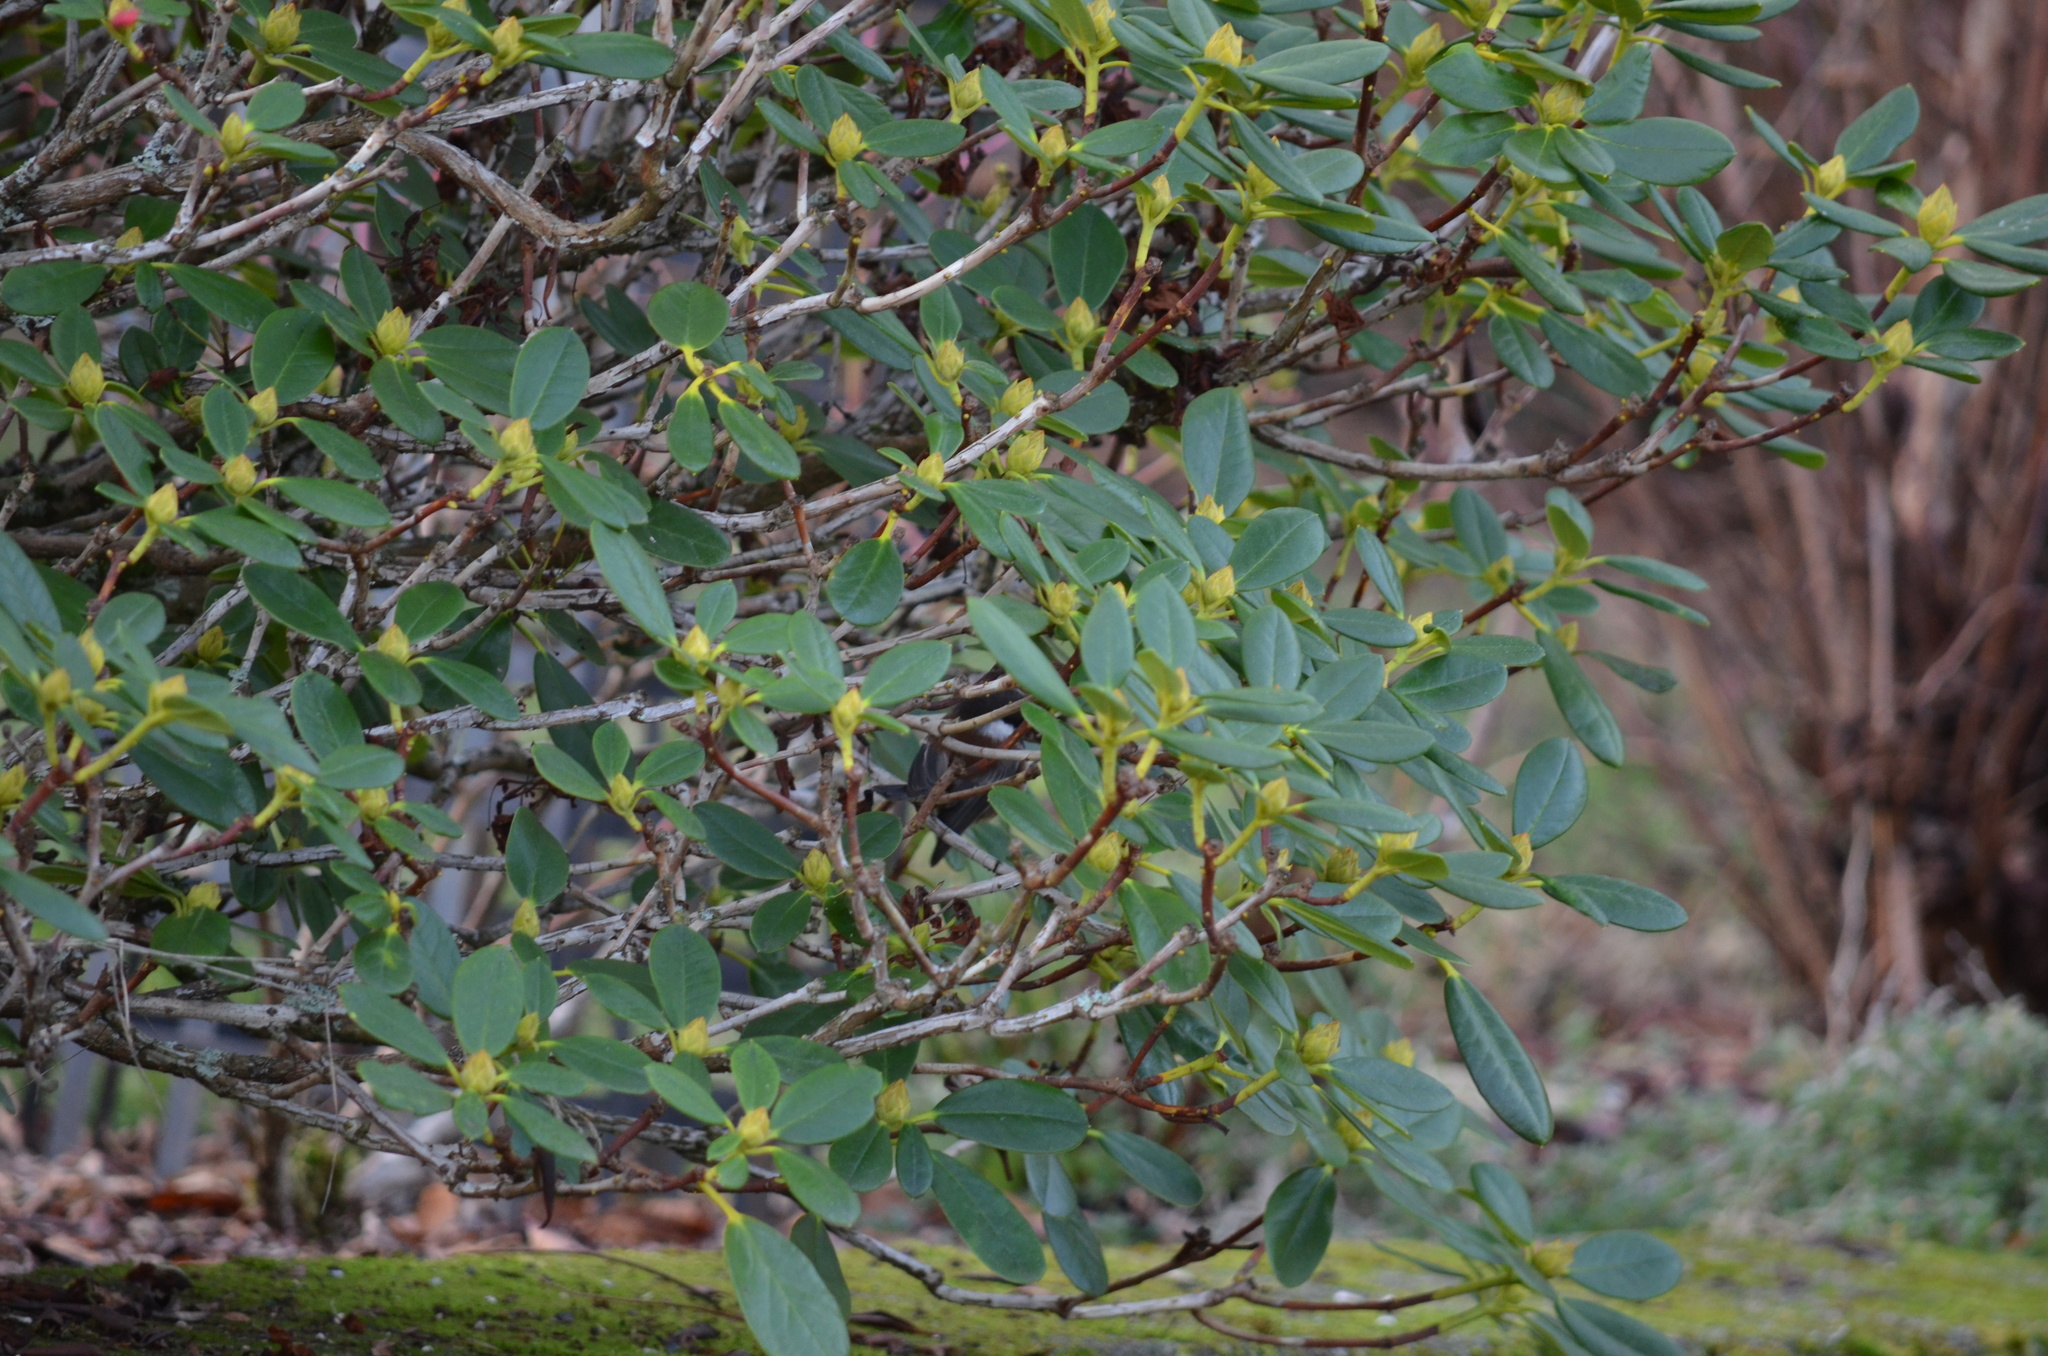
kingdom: Animalia
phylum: Chordata
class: Aves
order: Passeriformes
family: Paridae
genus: Poecile
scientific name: Poecile rufescens
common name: Chestnut-backed chickadee
